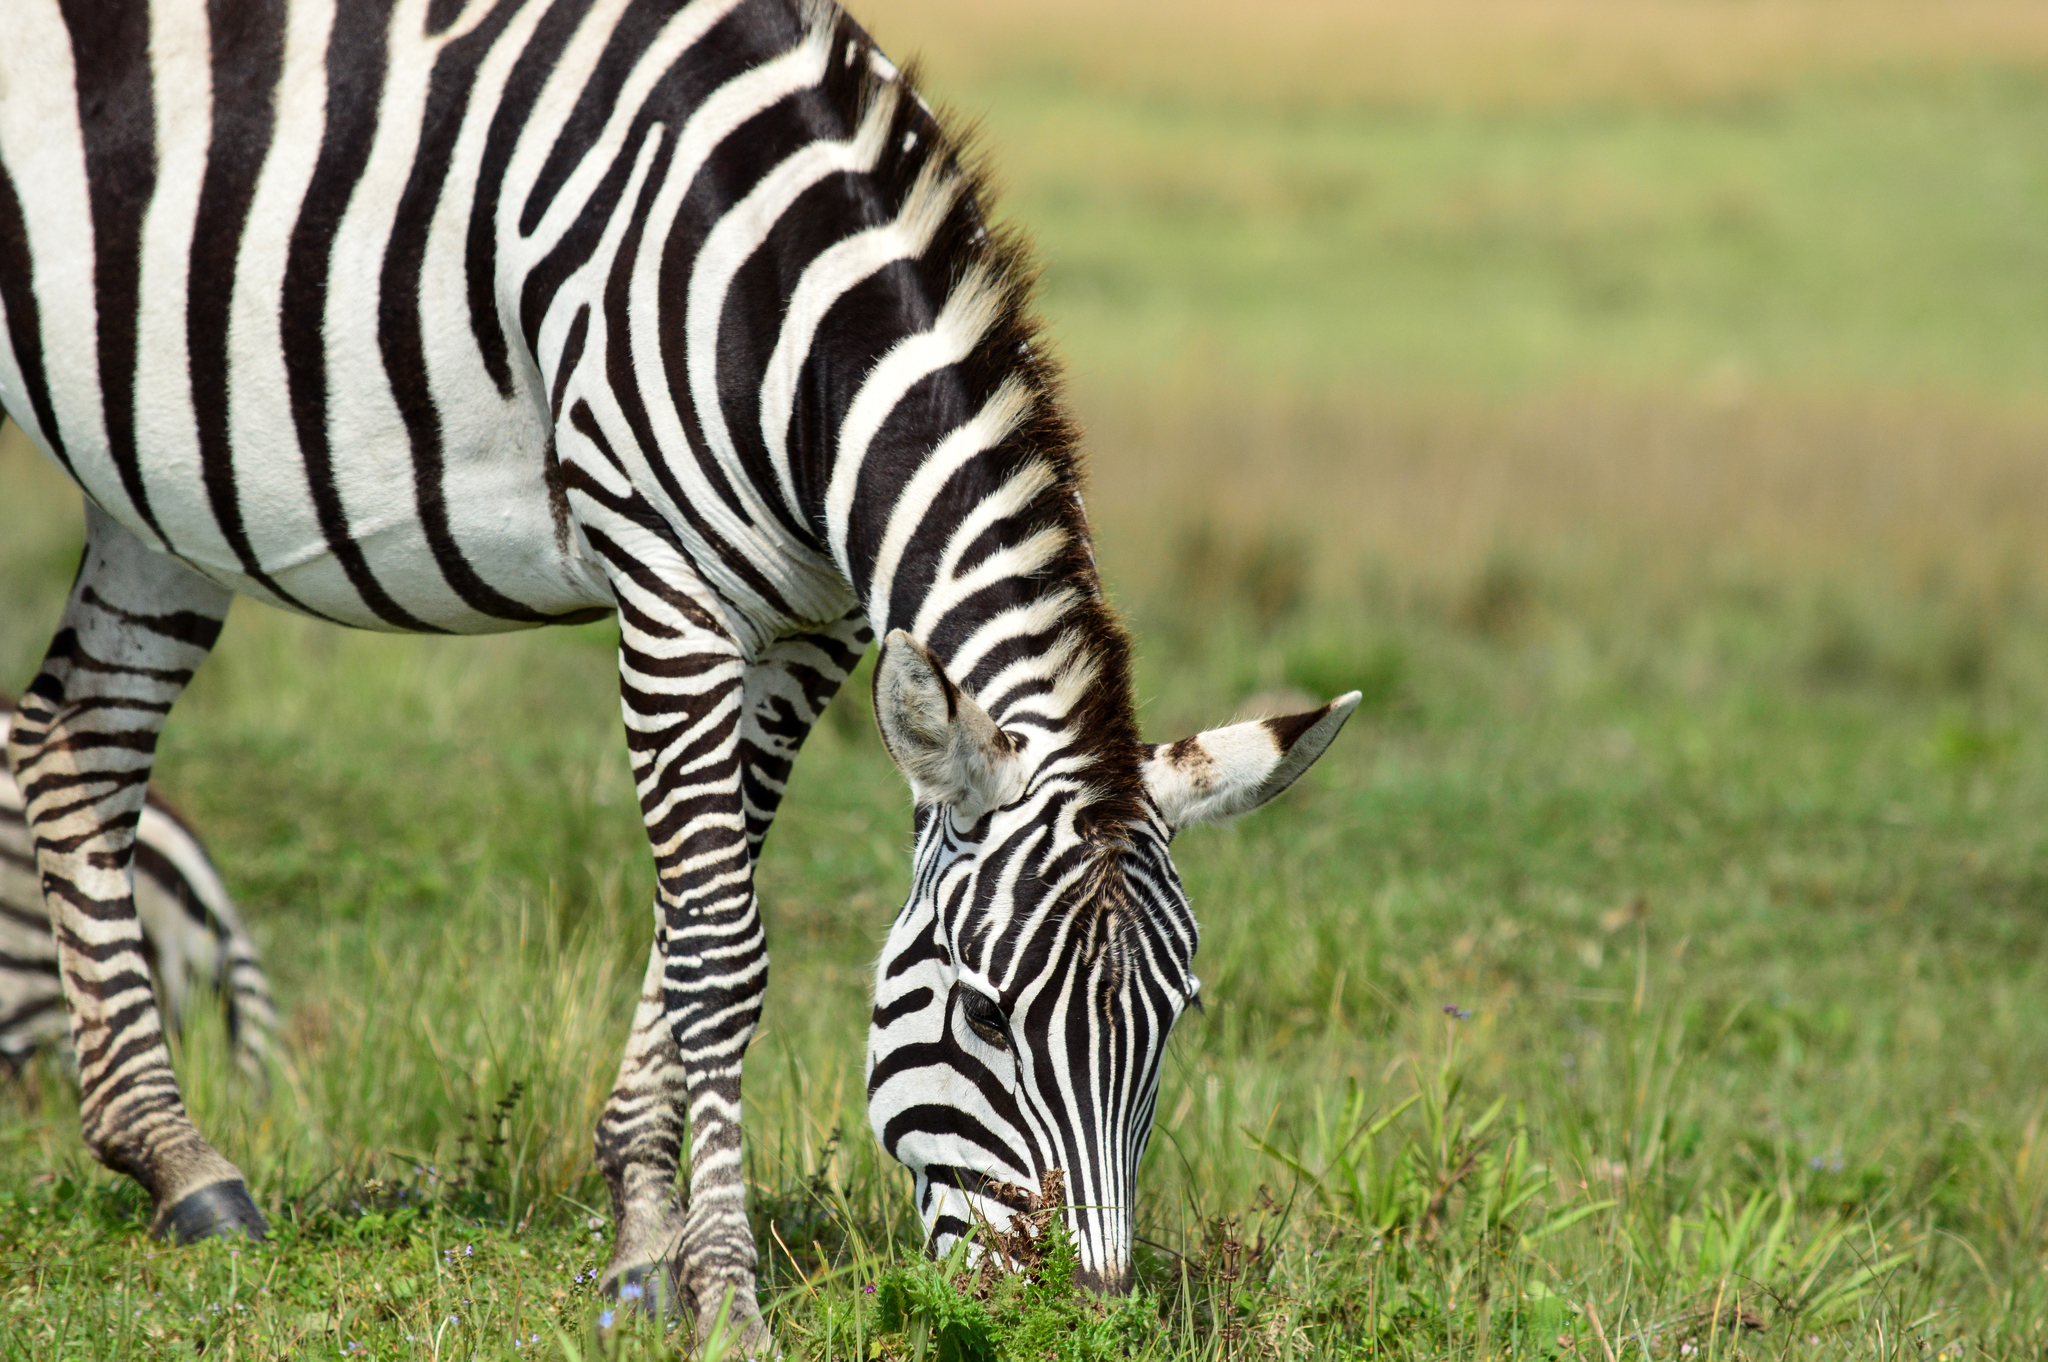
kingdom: Animalia
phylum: Chordata
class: Mammalia
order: Perissodactyla
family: Equidae
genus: Equus
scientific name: Equus quagga
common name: Plains zebra
